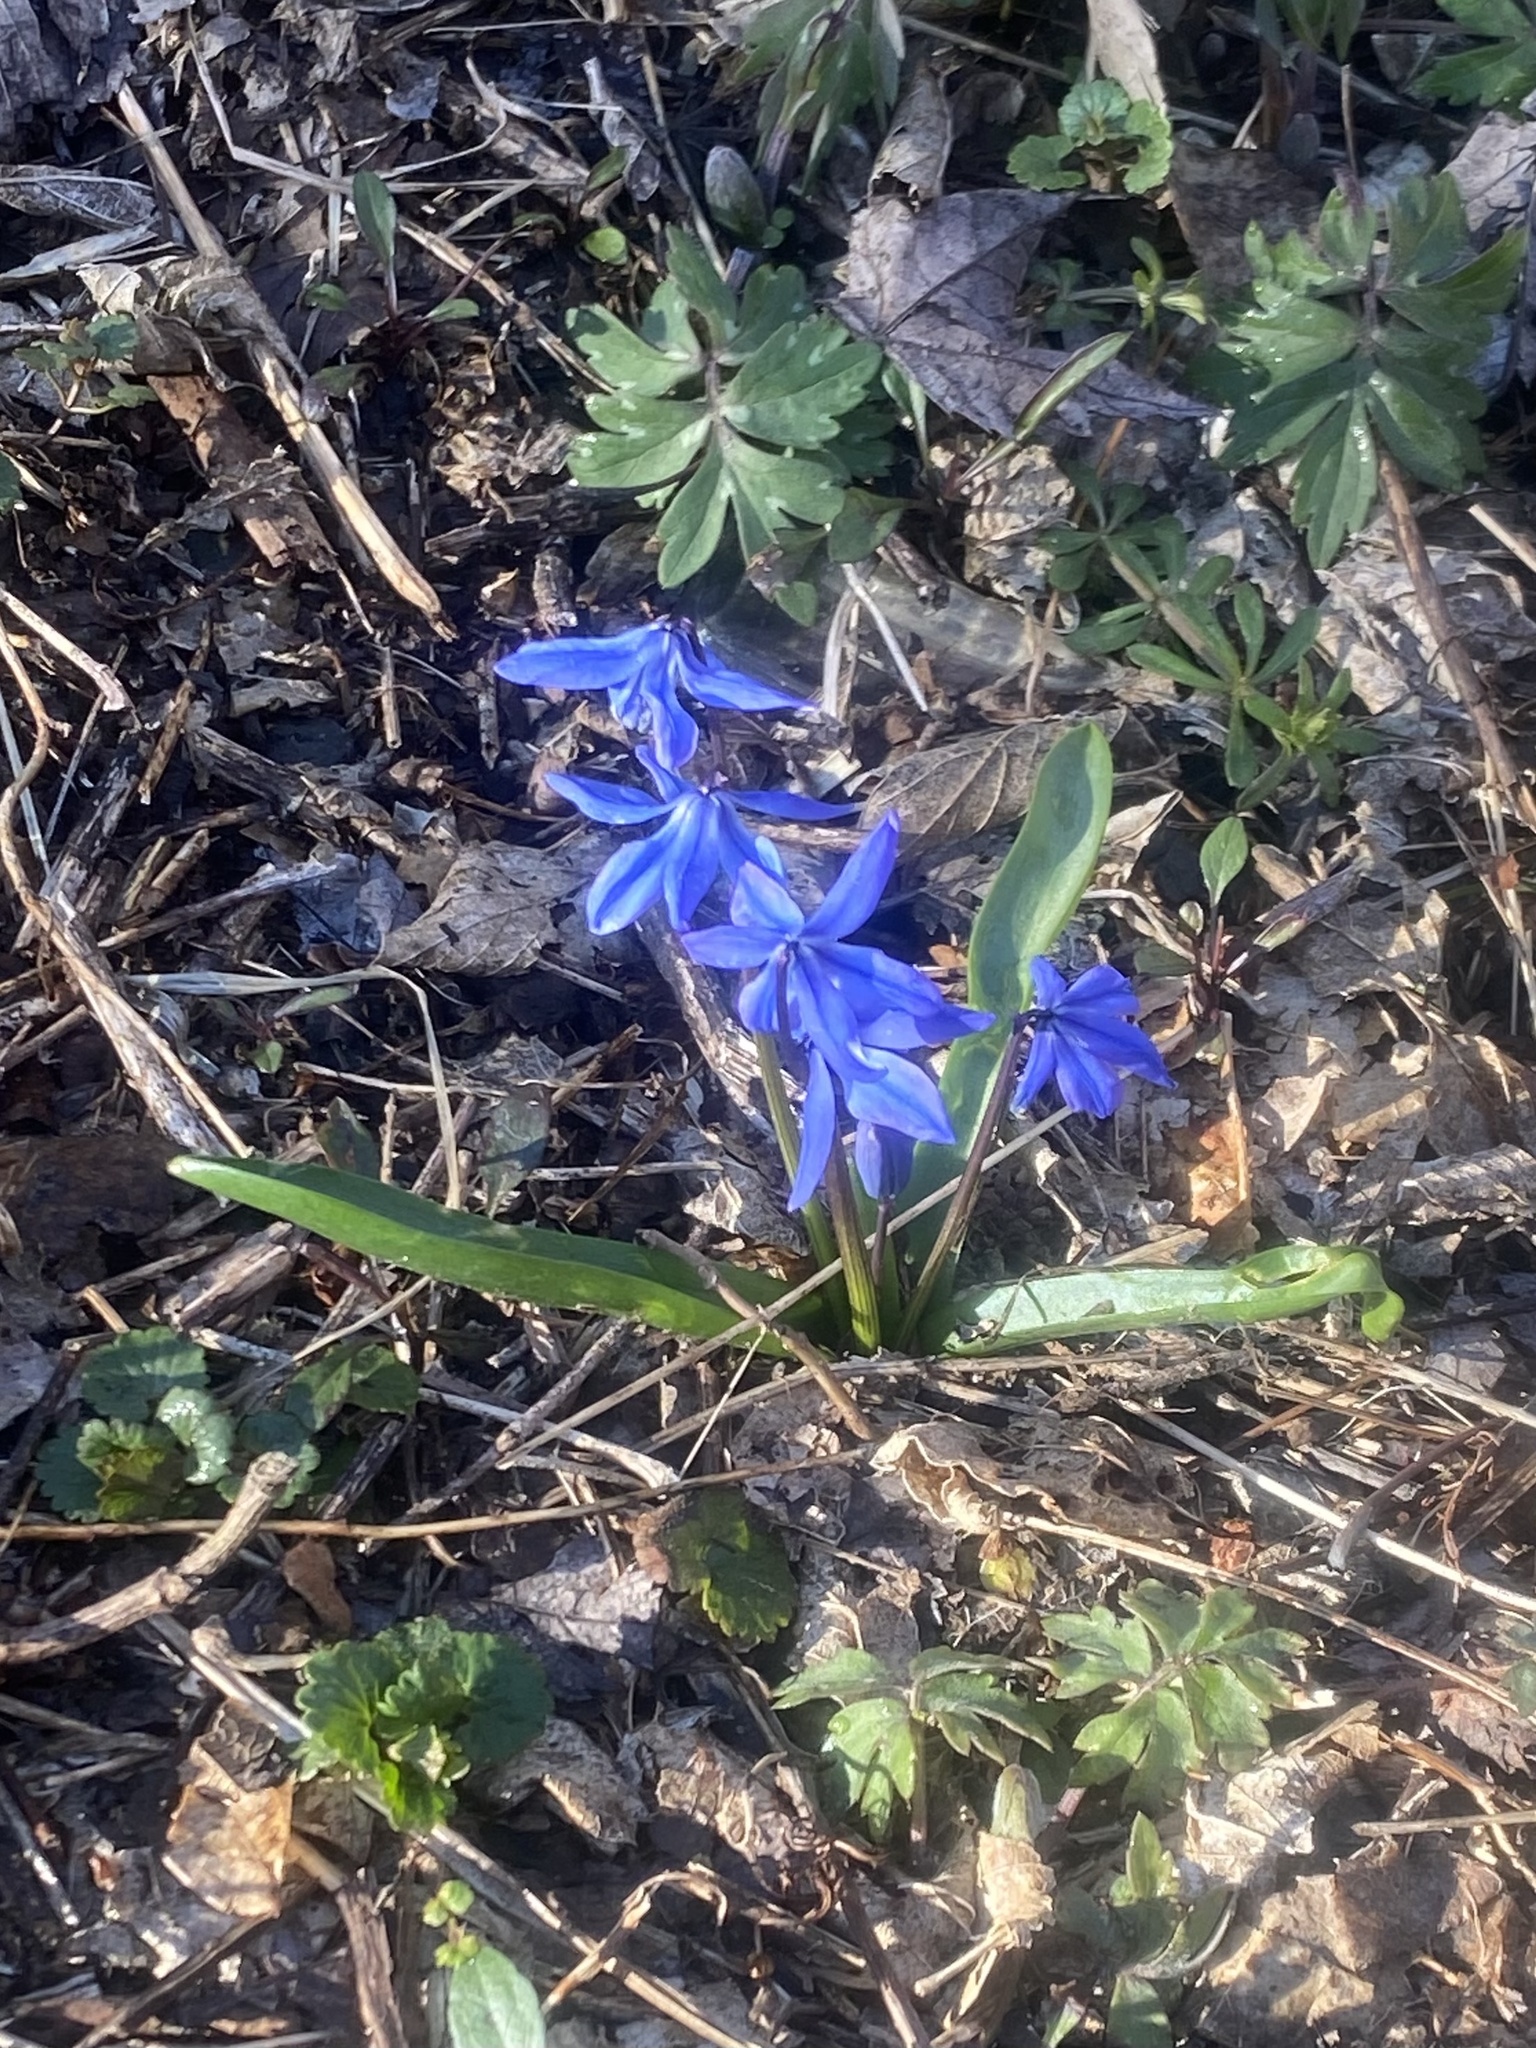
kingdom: Plantae
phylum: Tracheophyta
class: Liliopsida
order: Asparagales
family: Asparagaceae
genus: Scilla
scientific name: Scilla siberica
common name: Siberian squill
